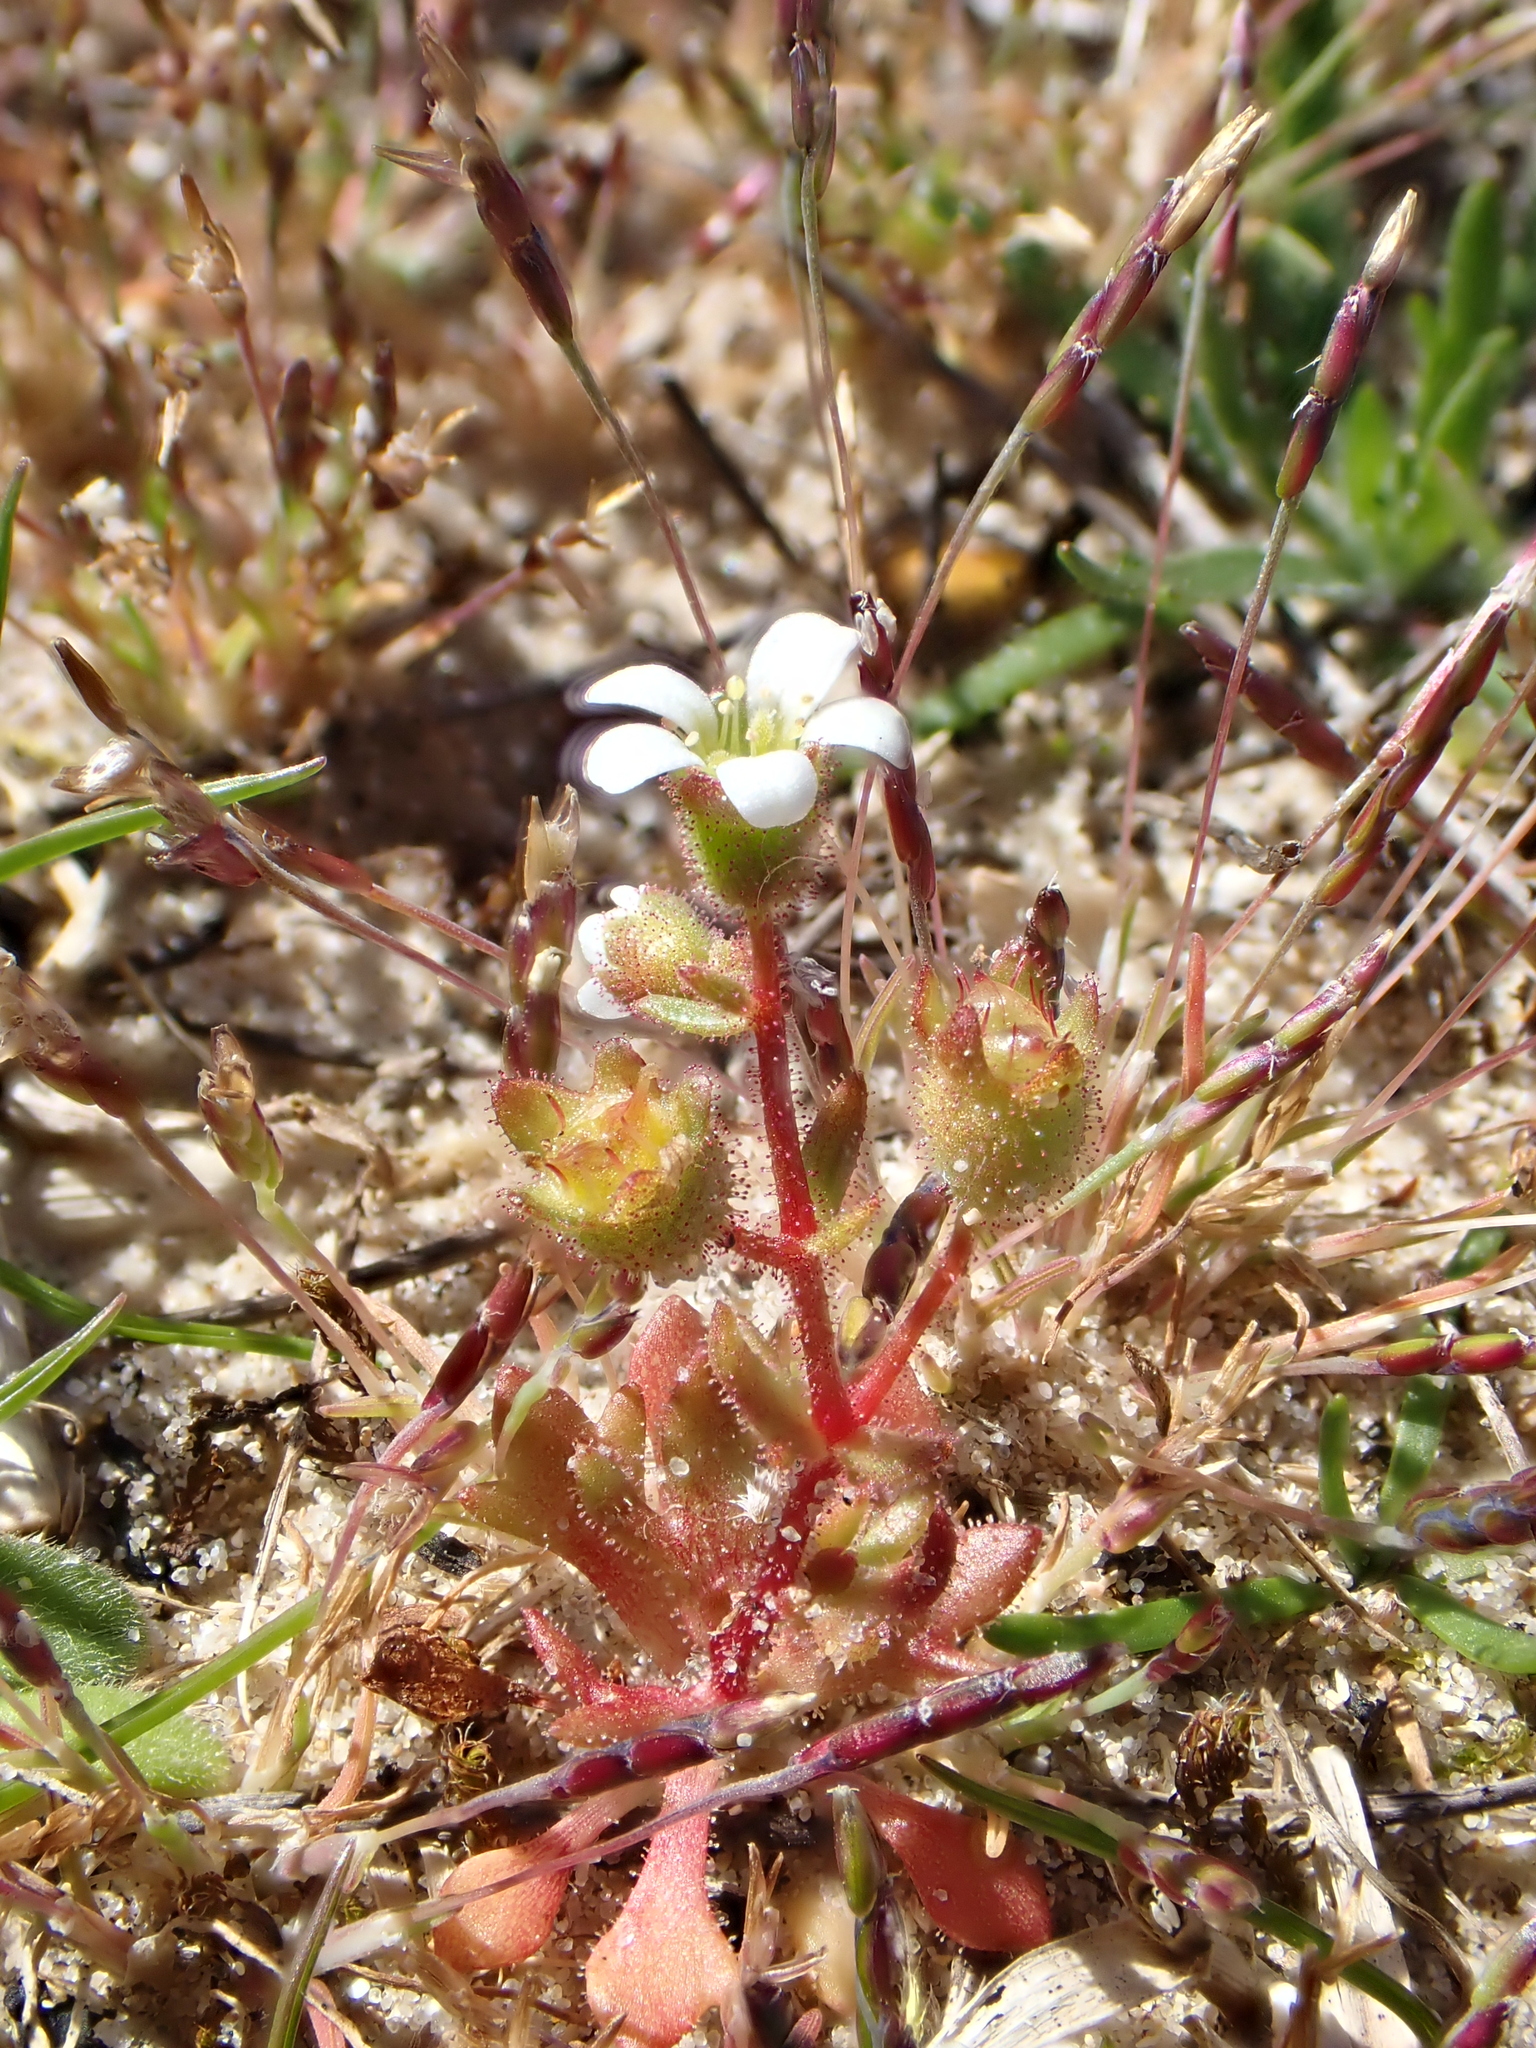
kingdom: Plantae
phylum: Tracheophyta
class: Magnoliopsida
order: Saxifragales
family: Saxifragaceae
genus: Saxifraga
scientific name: Saxifraga tridactylites
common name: Rue-leaved saxifrage
